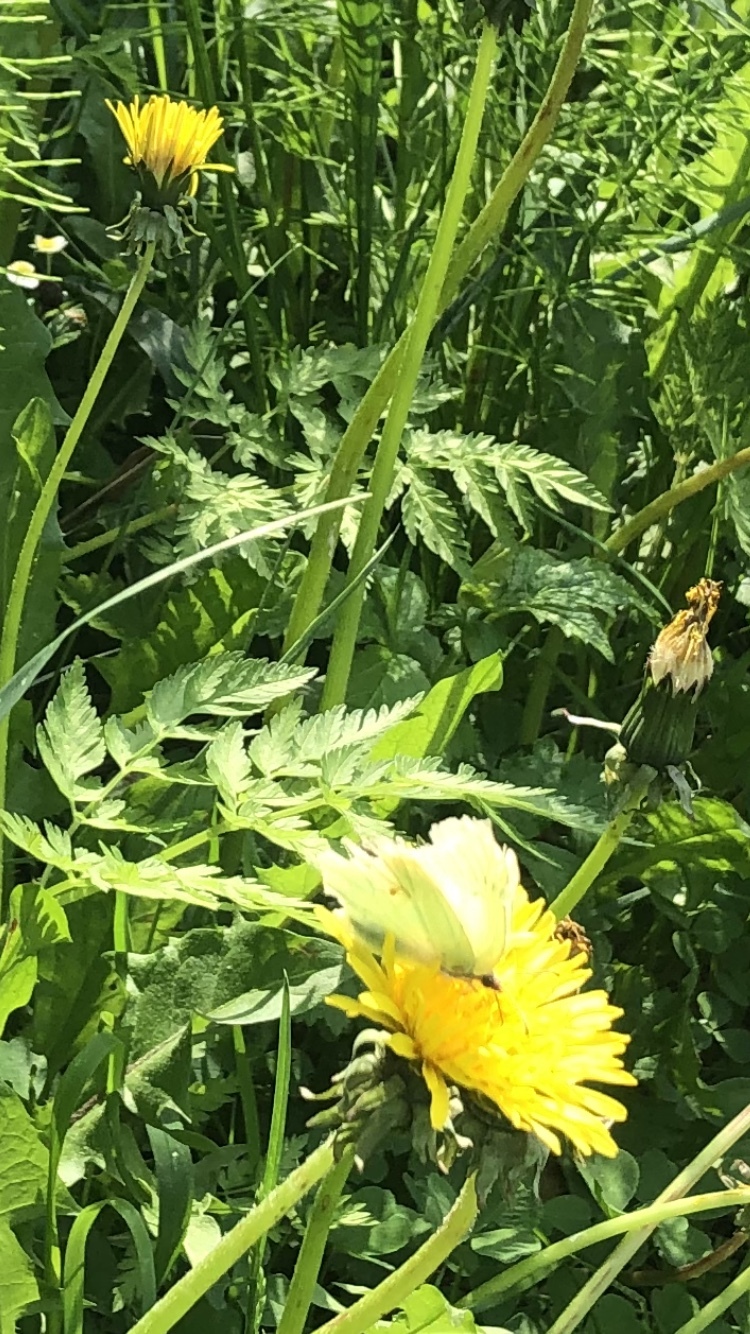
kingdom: Animalia
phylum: Arthropoda
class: Insecta
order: Lepidoptera
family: Pieridae
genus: Gonepteryx
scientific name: Gonepteryx rhamni
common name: Brimstone
